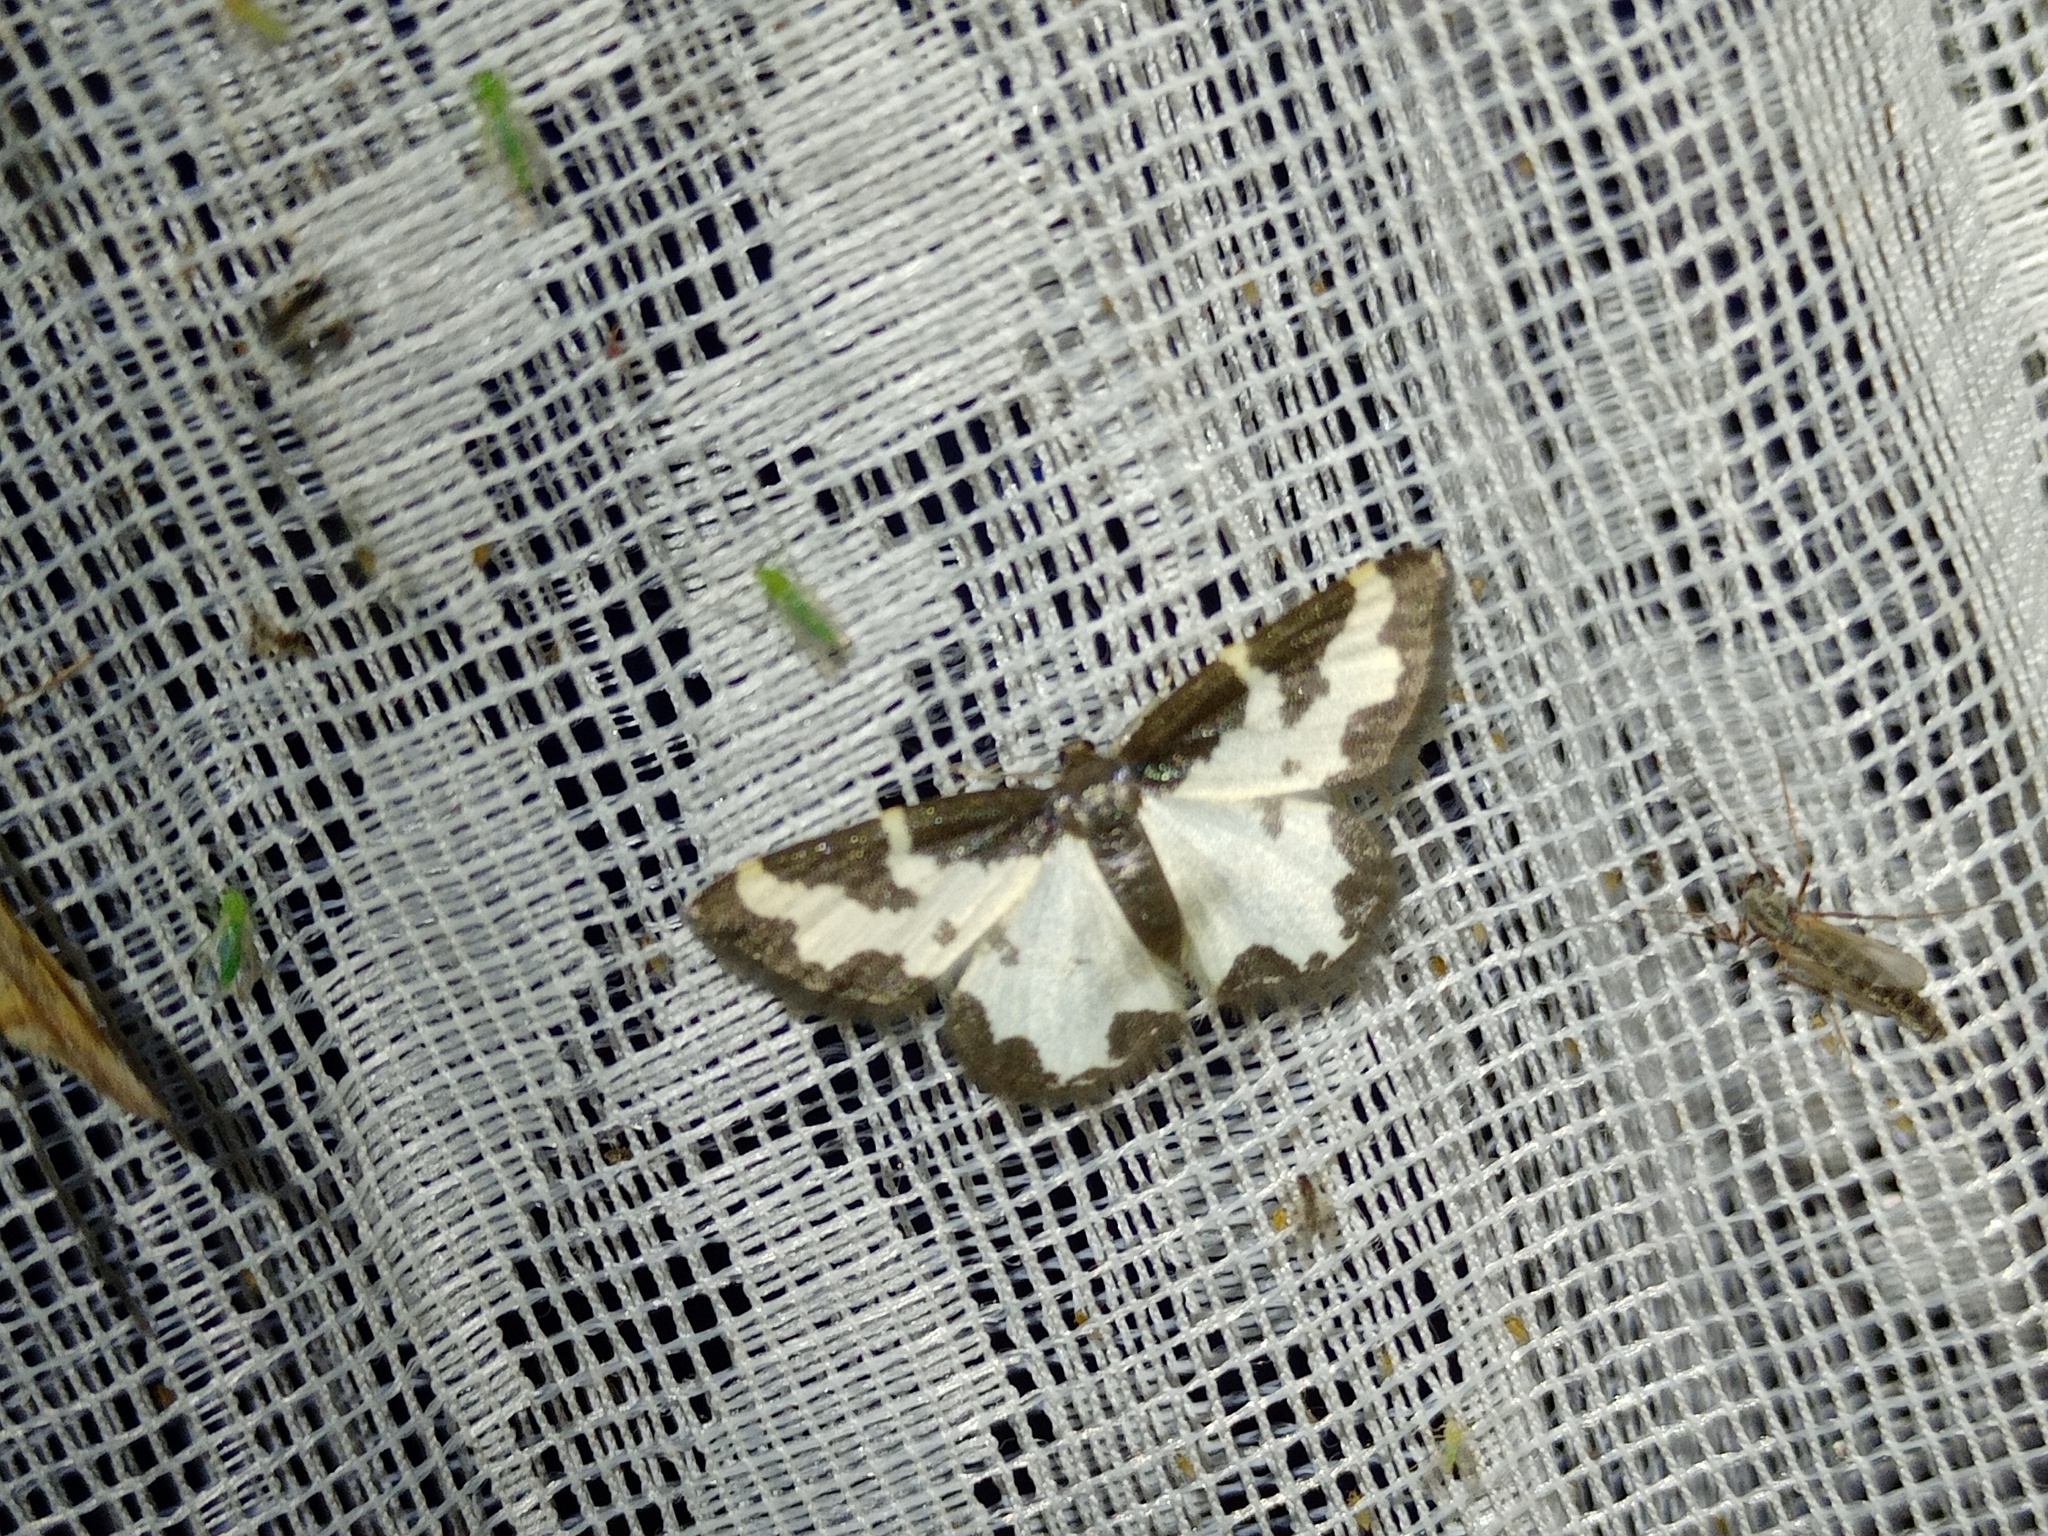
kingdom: Animalia
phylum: Arthropoda
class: Insecta
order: Lepidoptera
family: Geometridae
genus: Lomaspilis
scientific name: Lomaspilis marginata
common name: Clouded border
